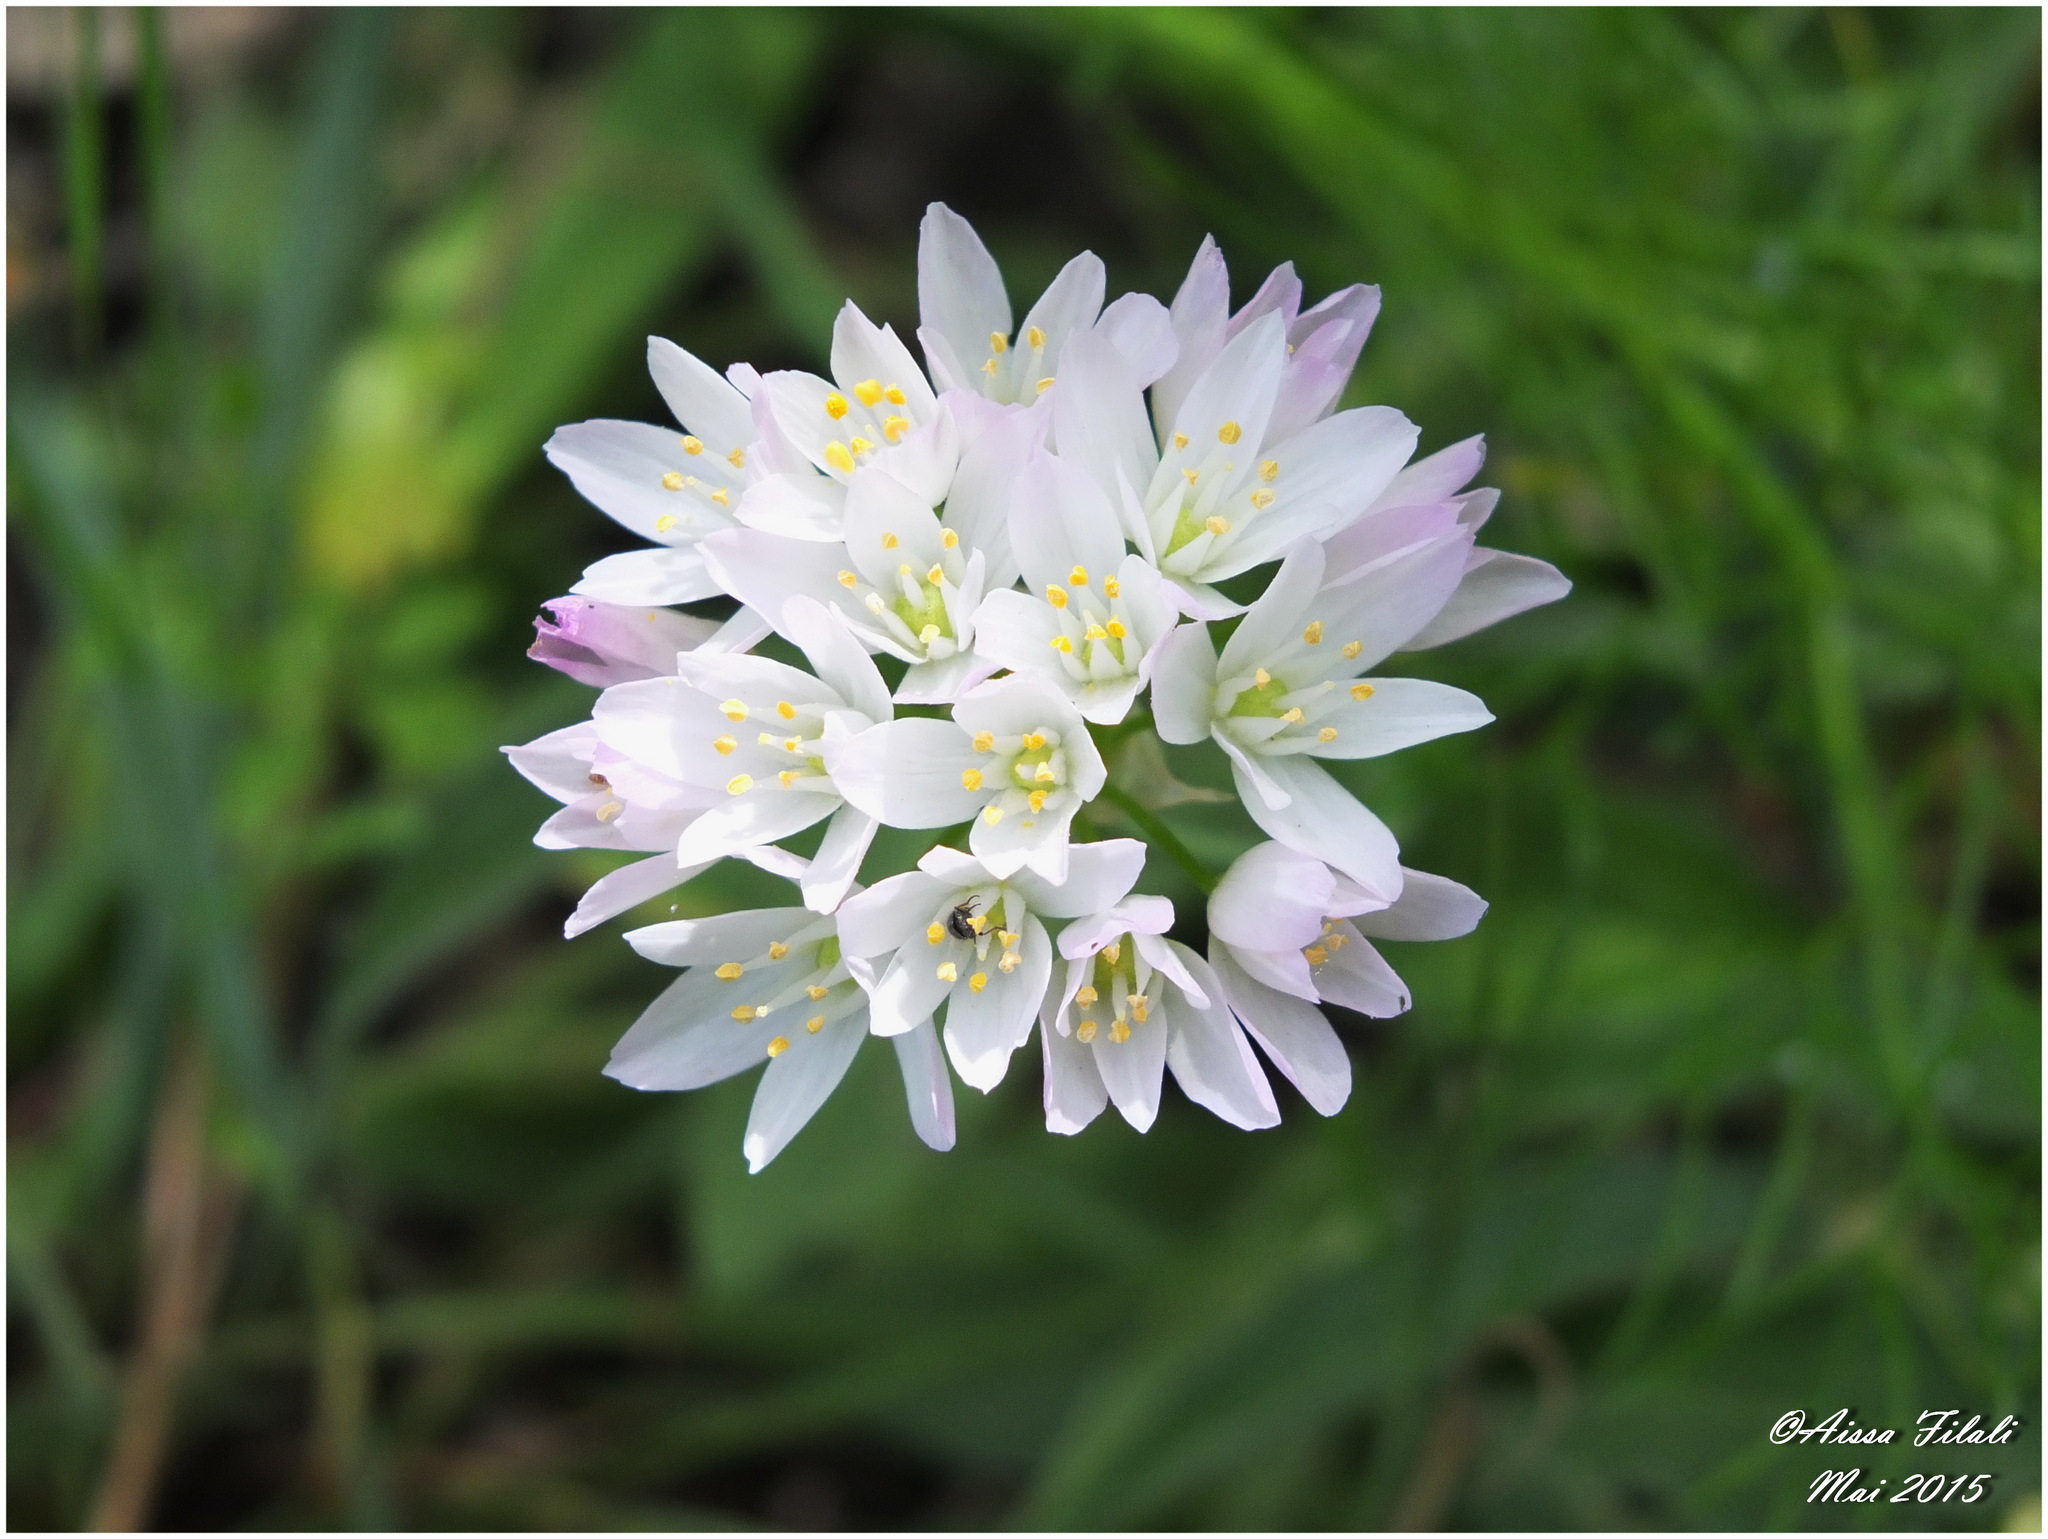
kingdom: Plantae
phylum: Tracheophyta
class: Liliopsida
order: Asparagales
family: Amaryllidaceae
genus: Allium
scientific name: Allium roseum
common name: Rosy garlic
